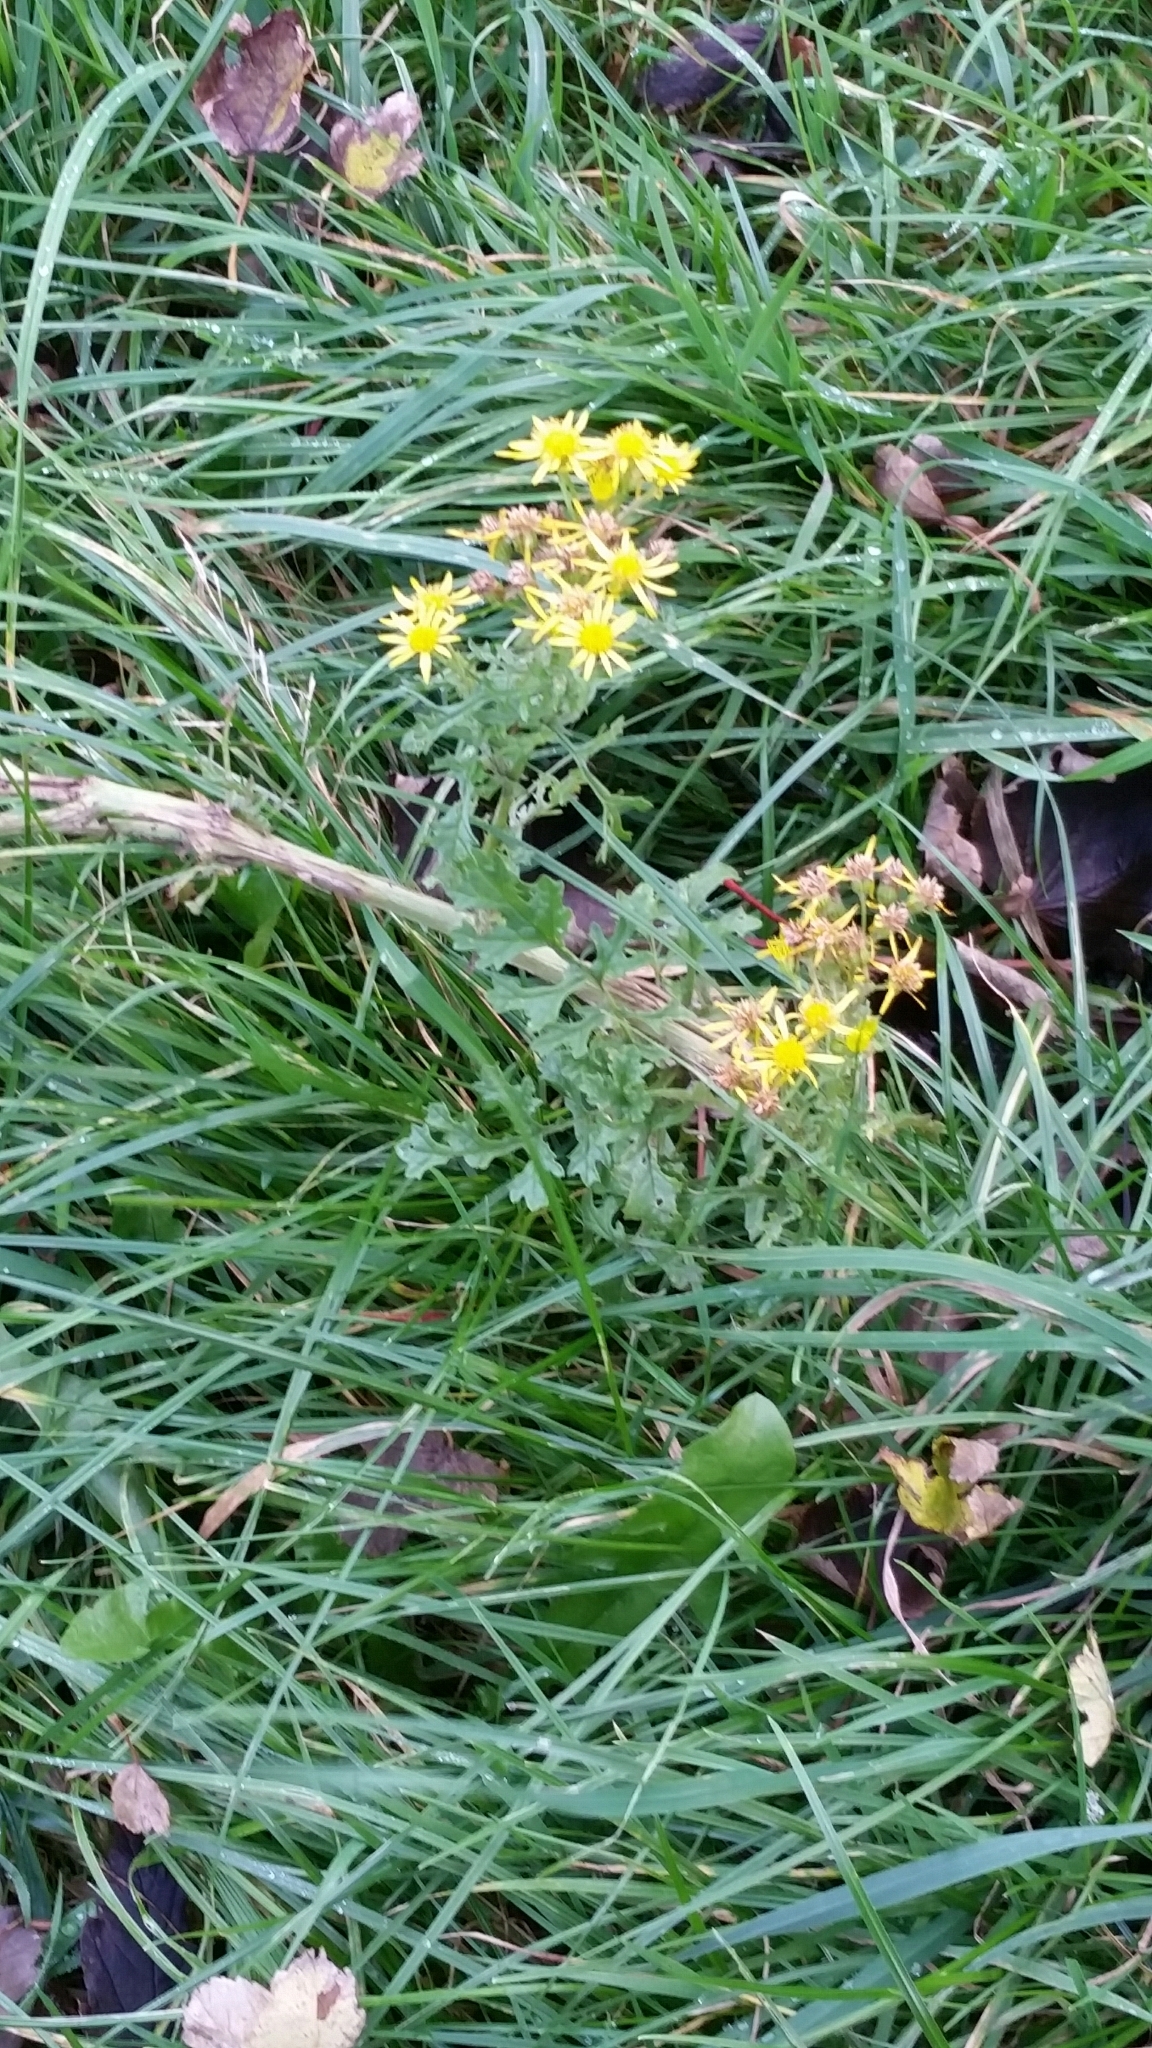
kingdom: Plantae
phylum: Tracheophyta
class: Magnoliopsida
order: Asterales
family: Asteraceae
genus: Jacobaea
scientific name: Jacobaea vulgaris
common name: Stinking willie
